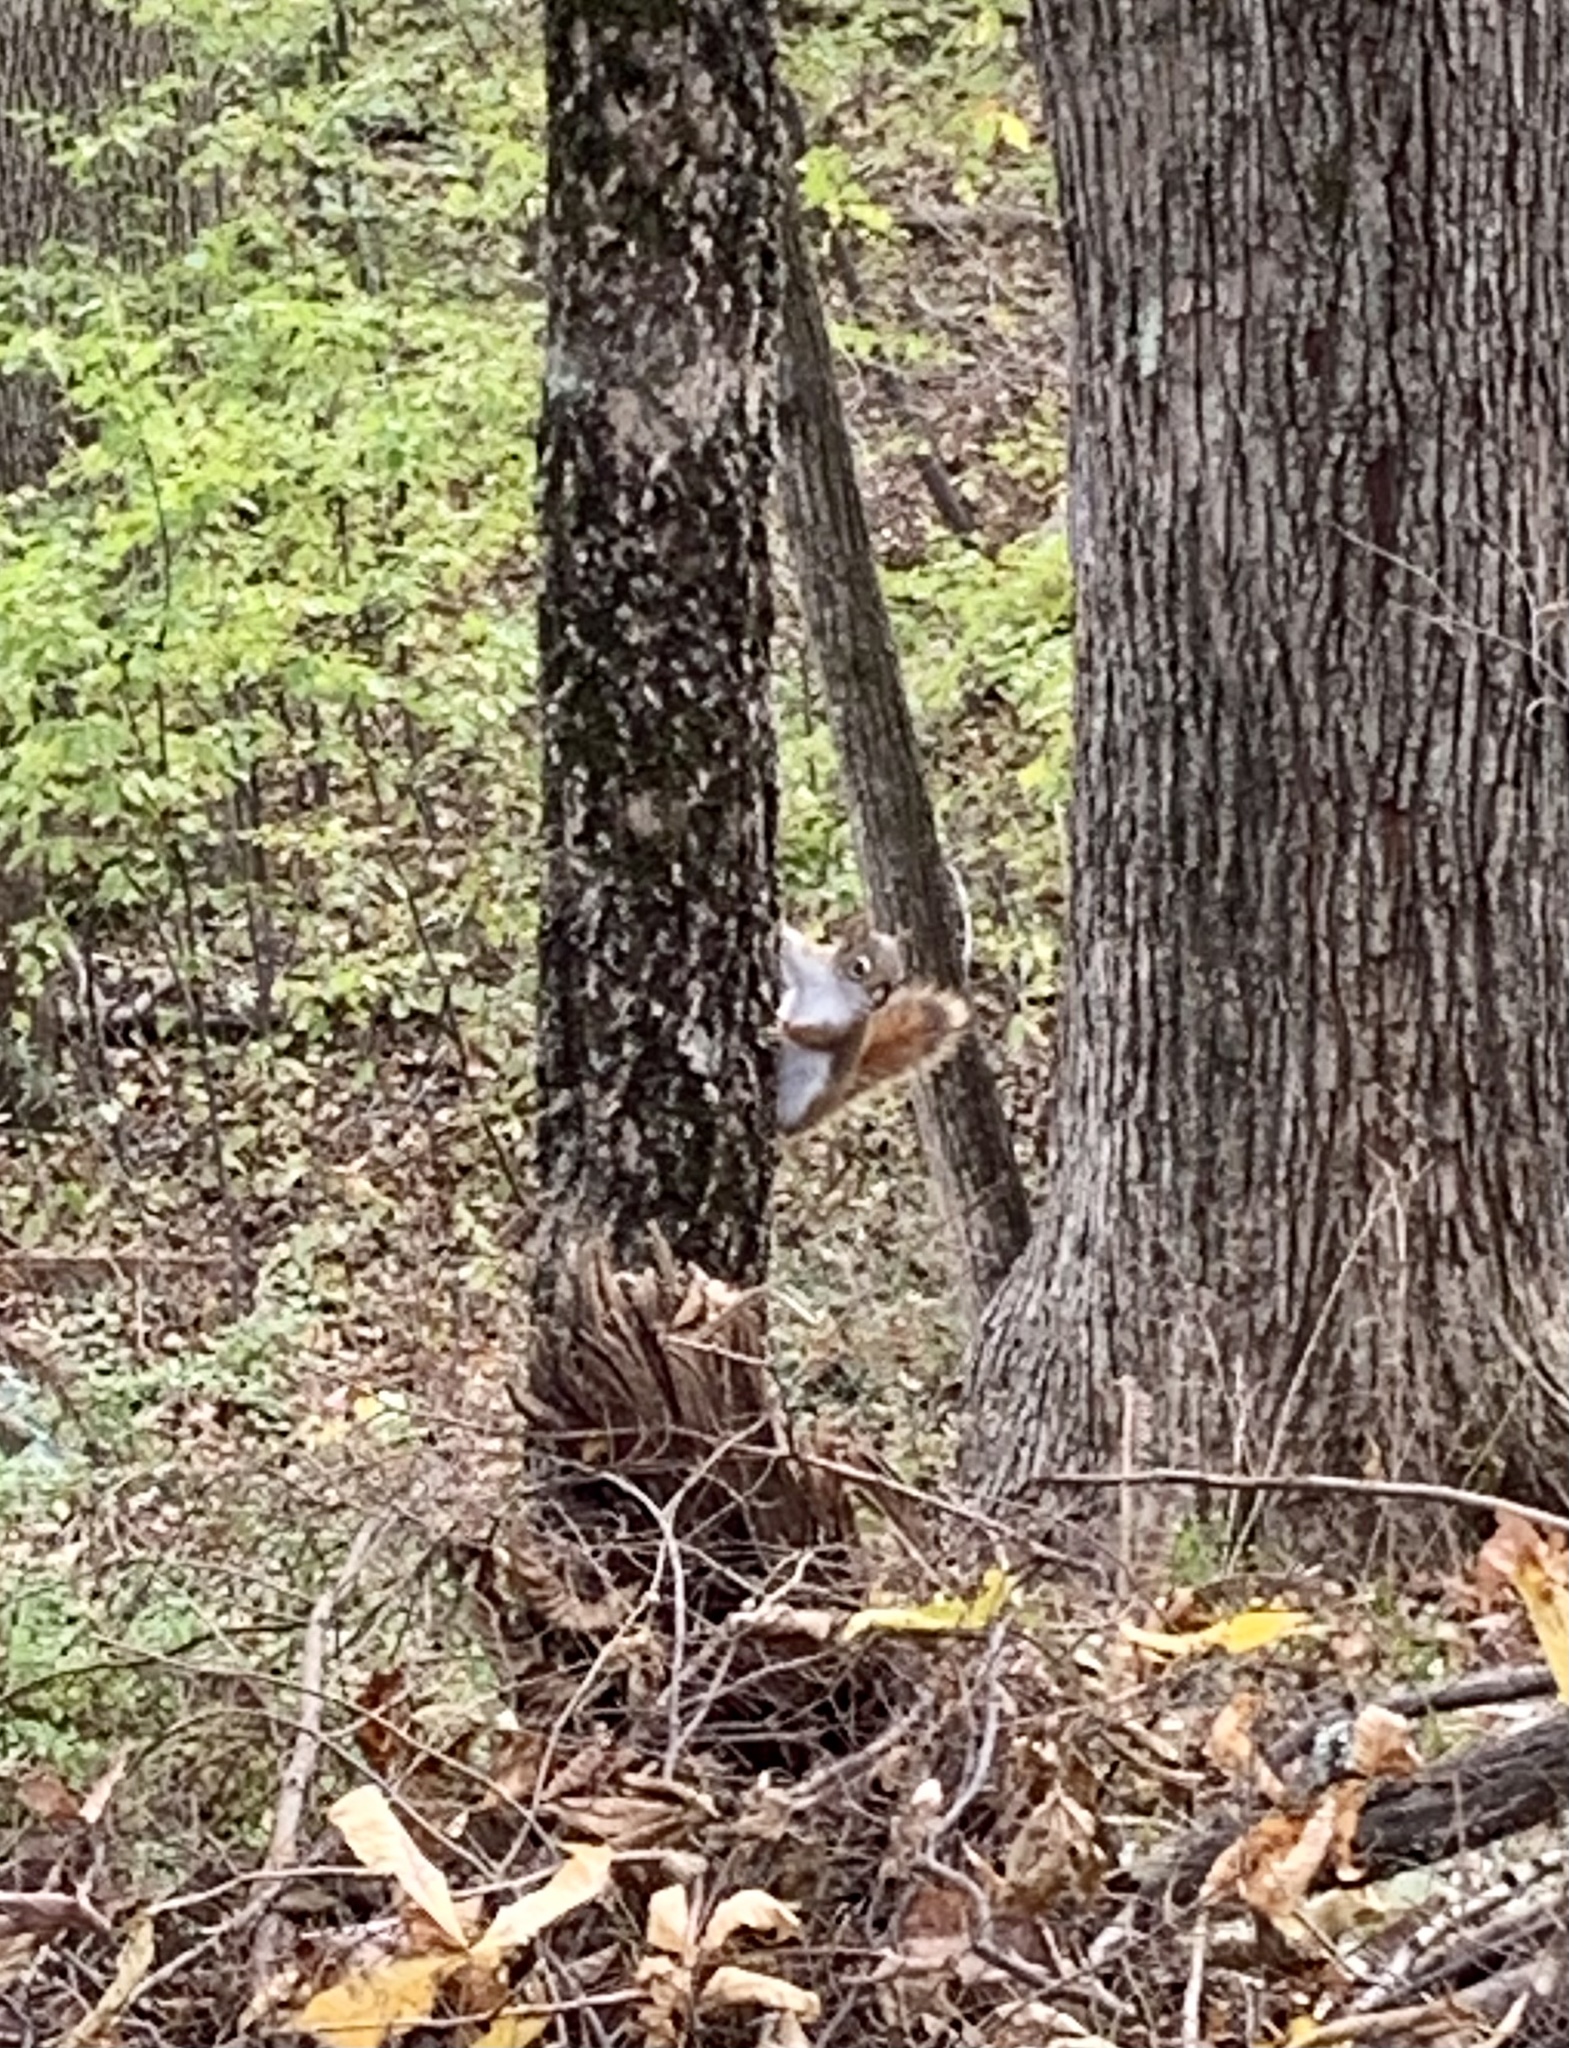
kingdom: Animalia
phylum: Chordata
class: Mammalia
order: Rodentia
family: Sciuridae
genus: Tamiasciurus
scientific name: Tamiasciurus hudsonicus
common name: Red squirrel
